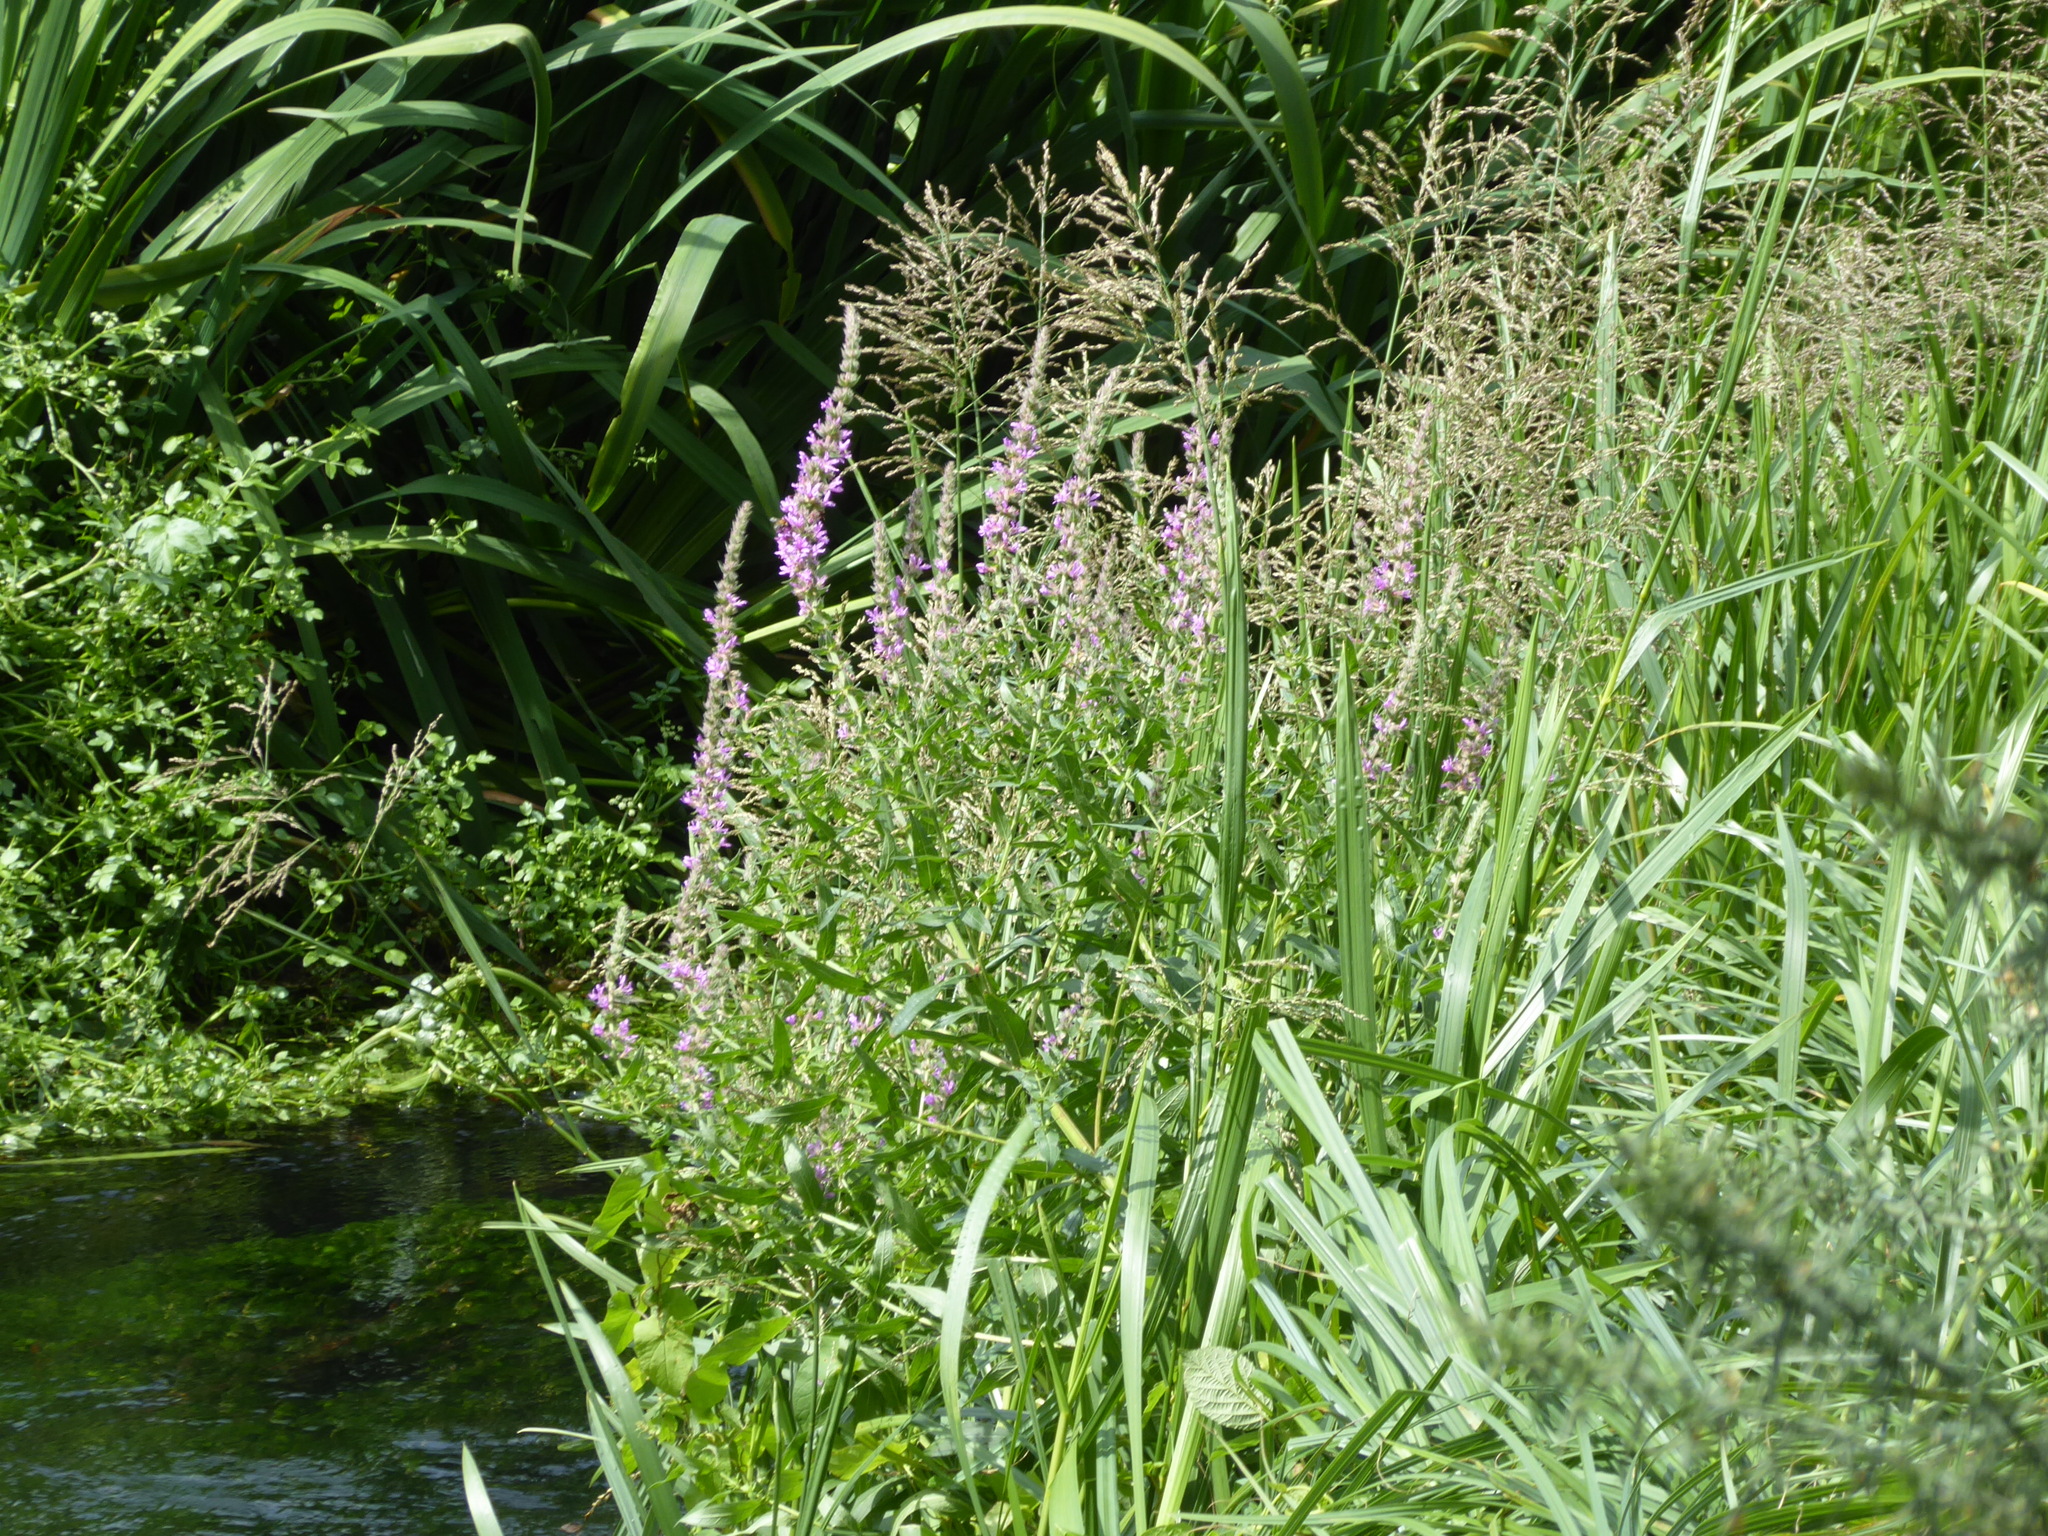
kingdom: Plantae
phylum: Tracheophyta
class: Magnoliopsida
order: Myrtales
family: Lythraceae
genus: Lythrum
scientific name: Lythrum salicaria
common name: Purple loosestrife
